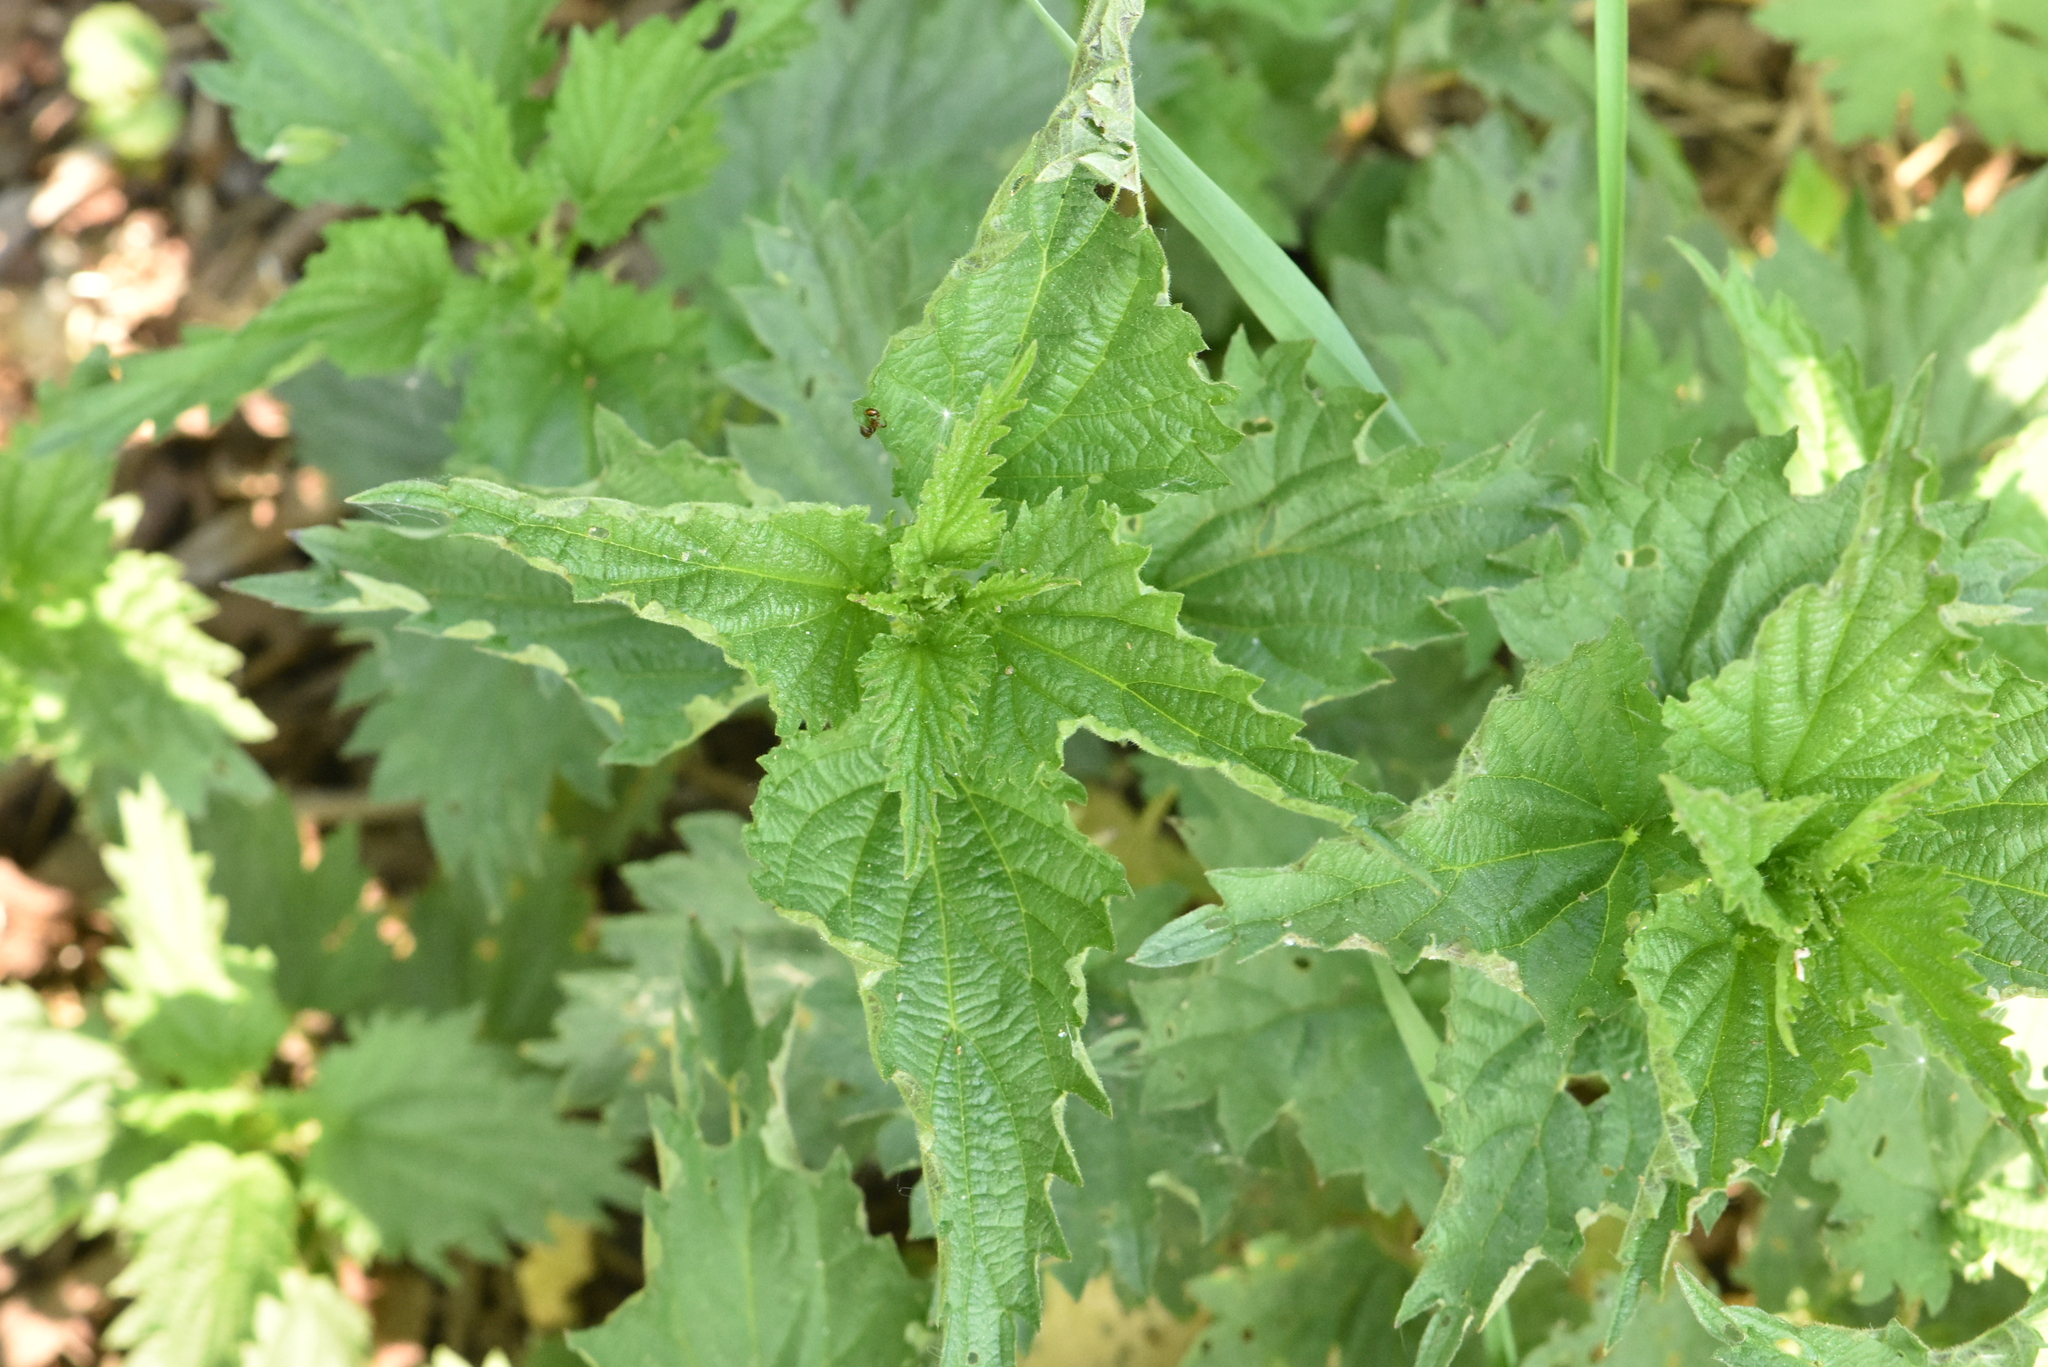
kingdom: Plantae
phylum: Tracheophyta
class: Magnoliopsida
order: Rosales
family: Urticaceae
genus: Urtica
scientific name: Urtica dioica
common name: Common nettle
